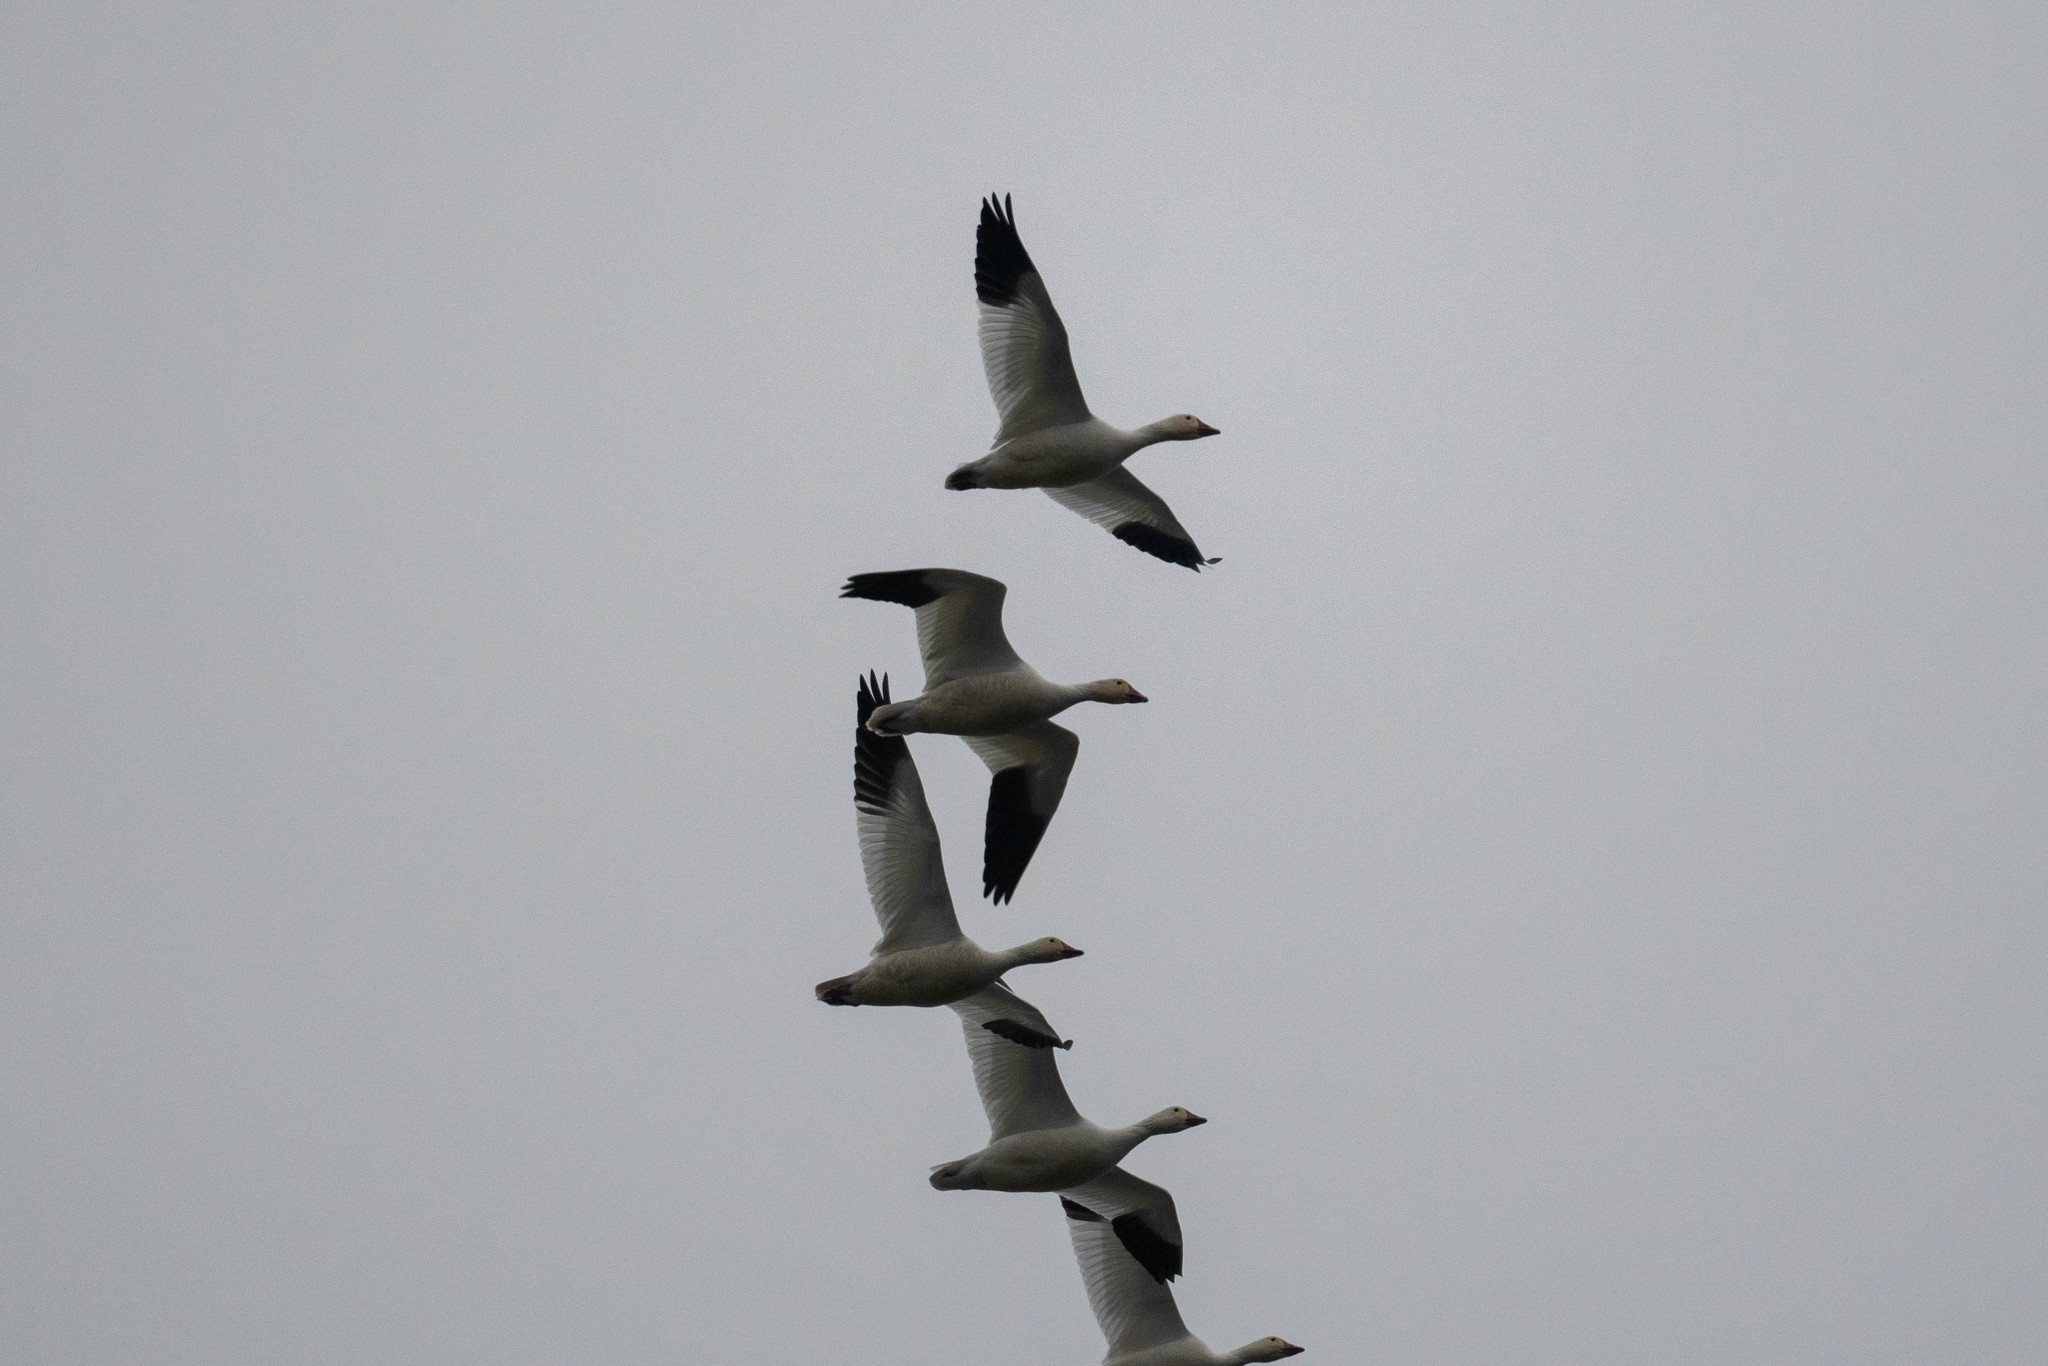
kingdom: Animalia
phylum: Chordata
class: Aves
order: Anseriformes
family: Anatidae
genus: Anser
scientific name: Anser caerulescens
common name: Snow goose
